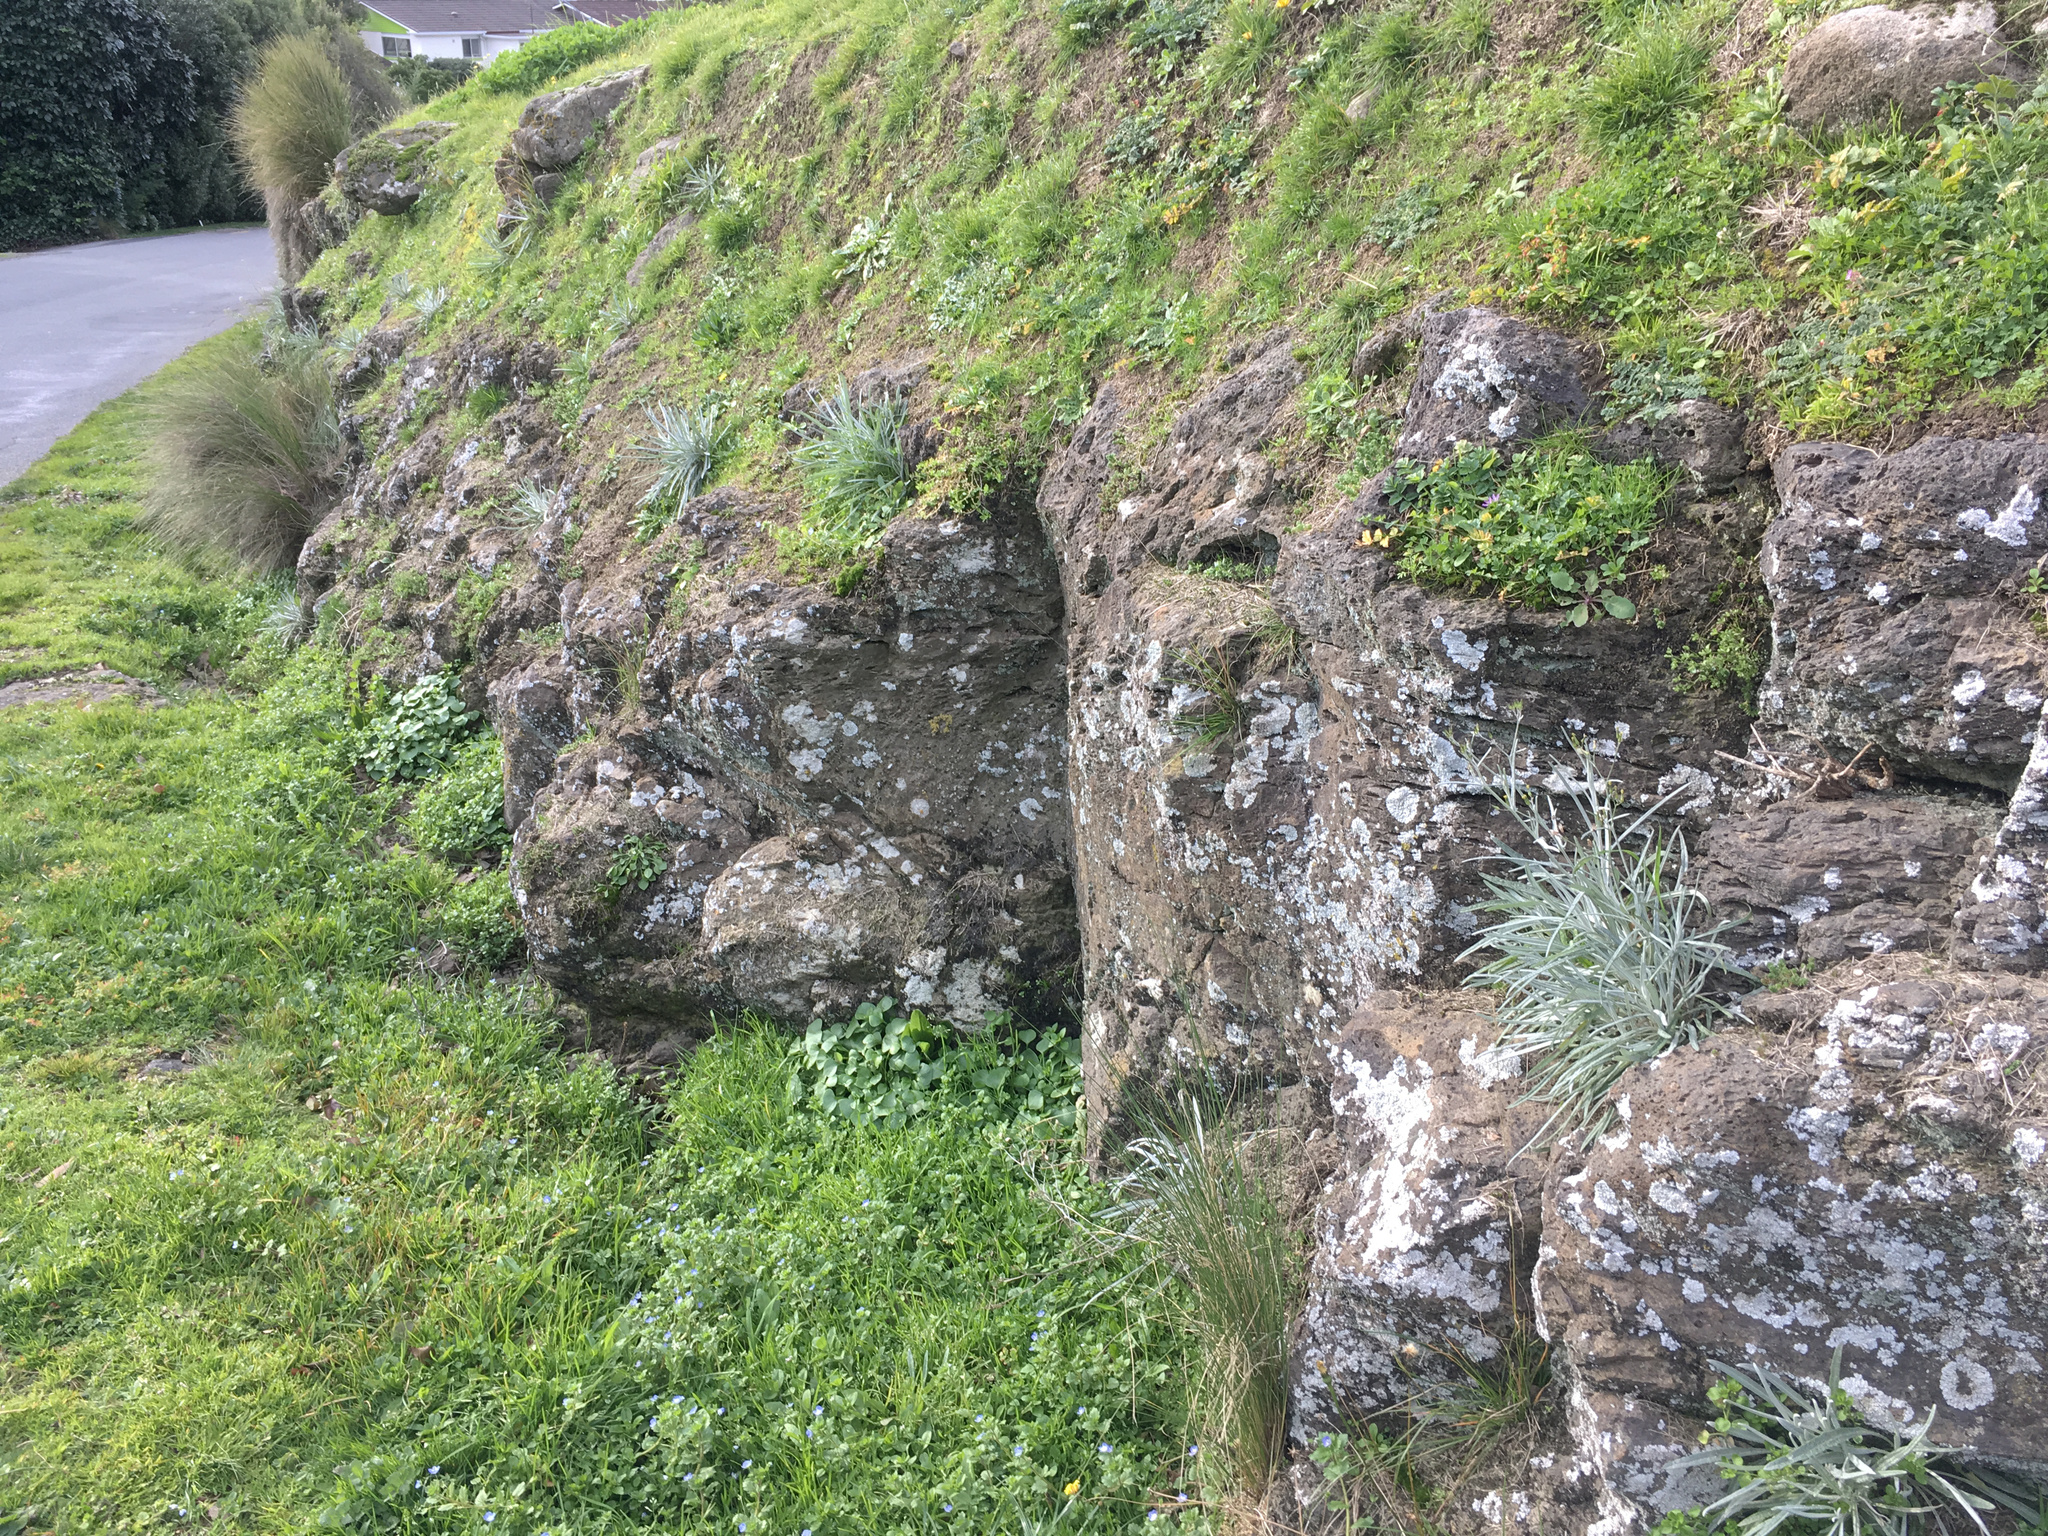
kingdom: Plantae
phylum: Tracheophyta
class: Magnoliopsida
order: Asterales
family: Asteraceae
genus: Senecio
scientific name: Senecio quadridentatus
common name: Cotton fireweed
